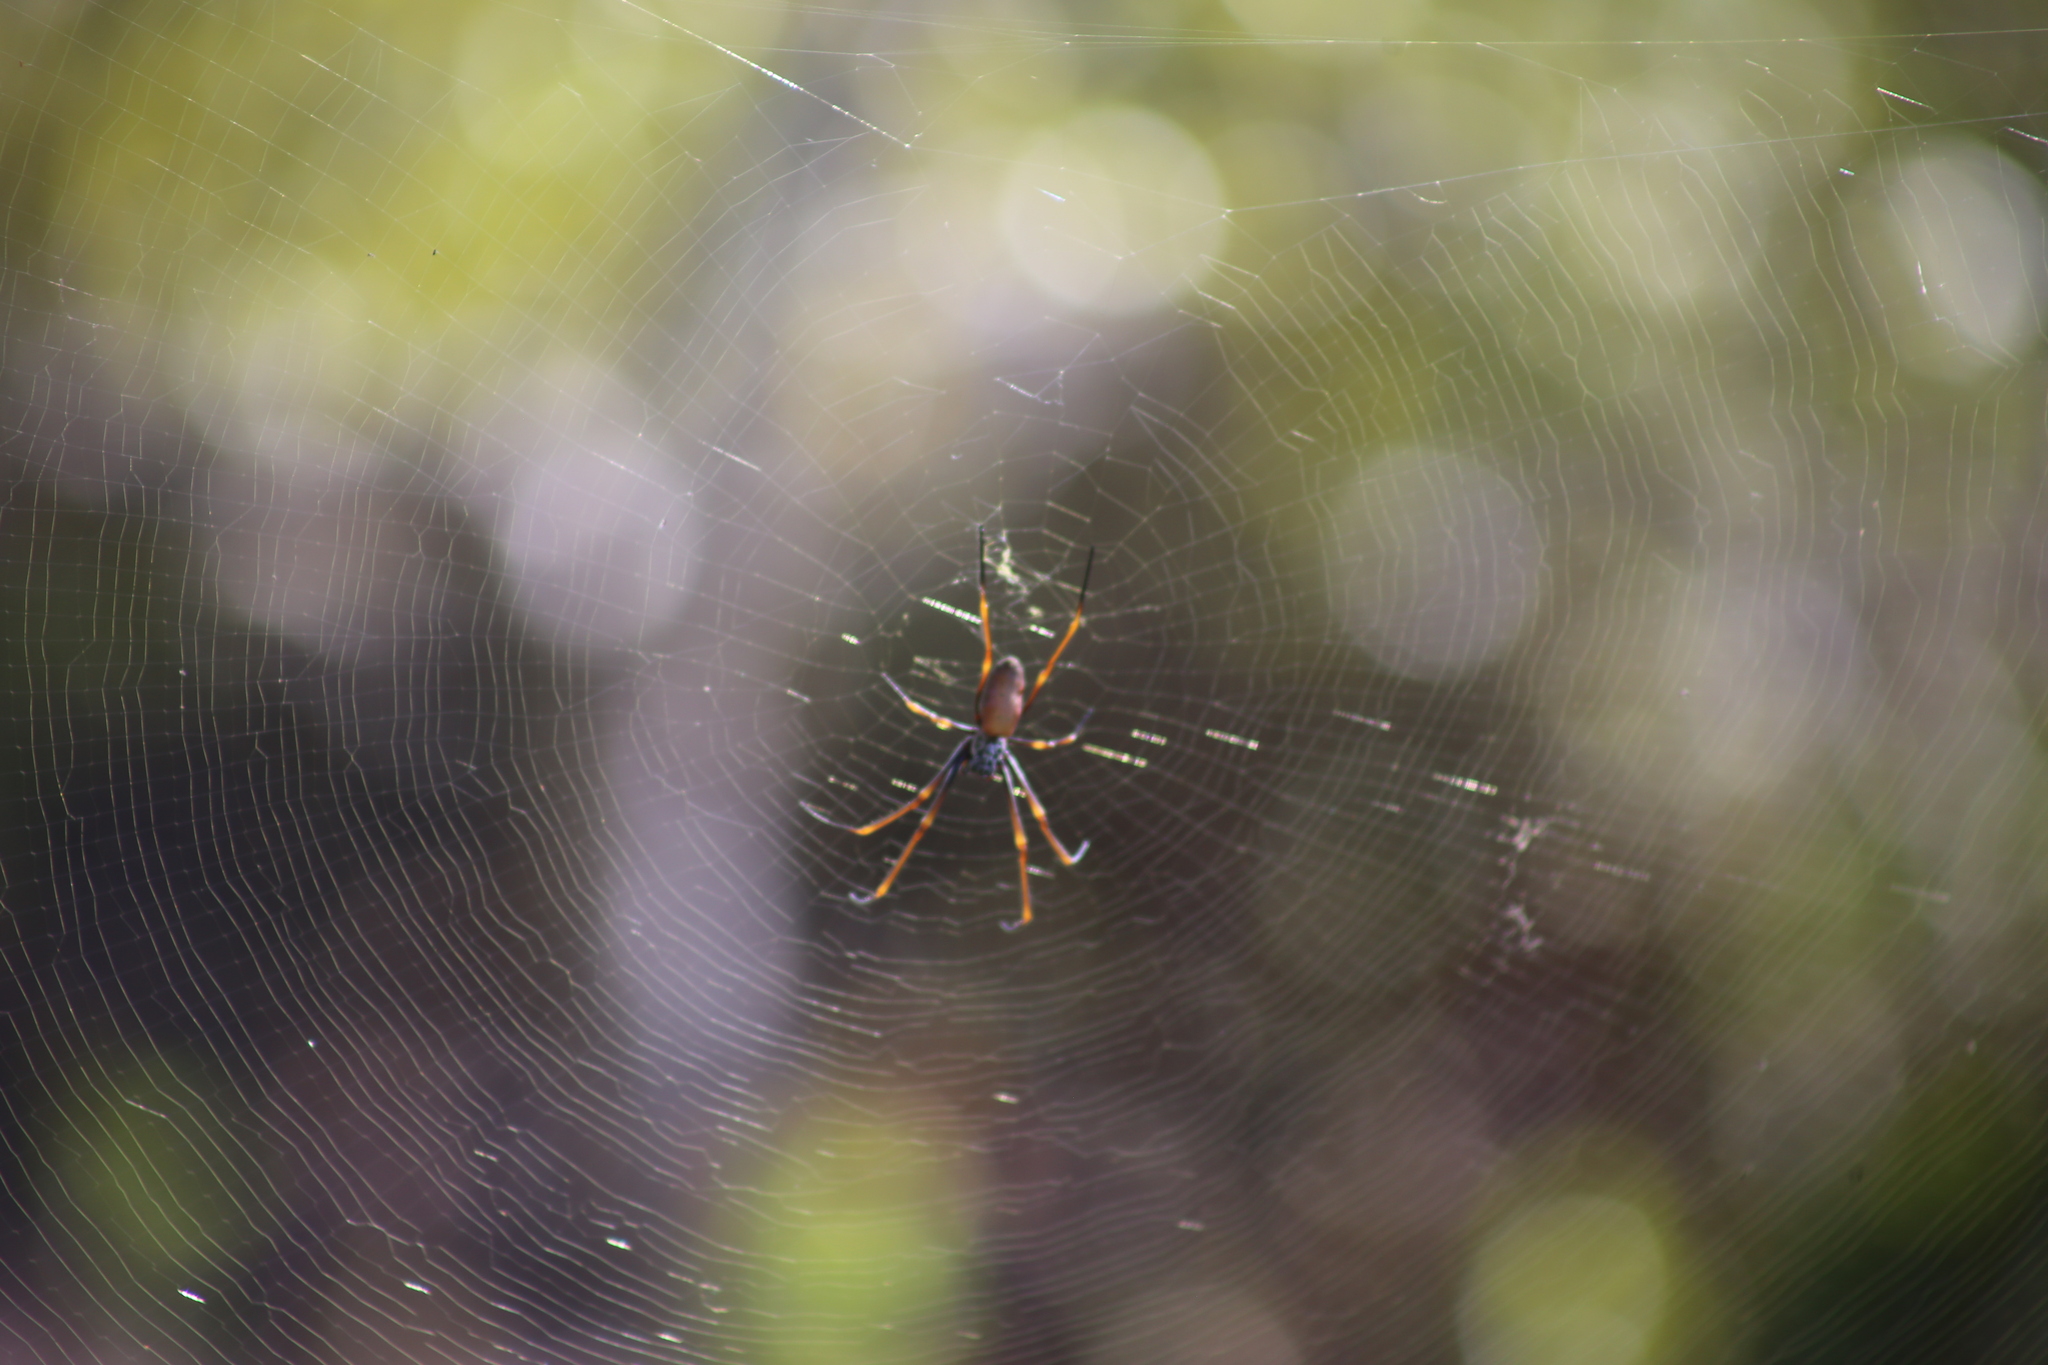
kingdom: Animalia
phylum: Arthropoda
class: Arachnida
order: Araneae
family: Araneidae
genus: Trichonephila
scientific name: Trichonephila plumipes
